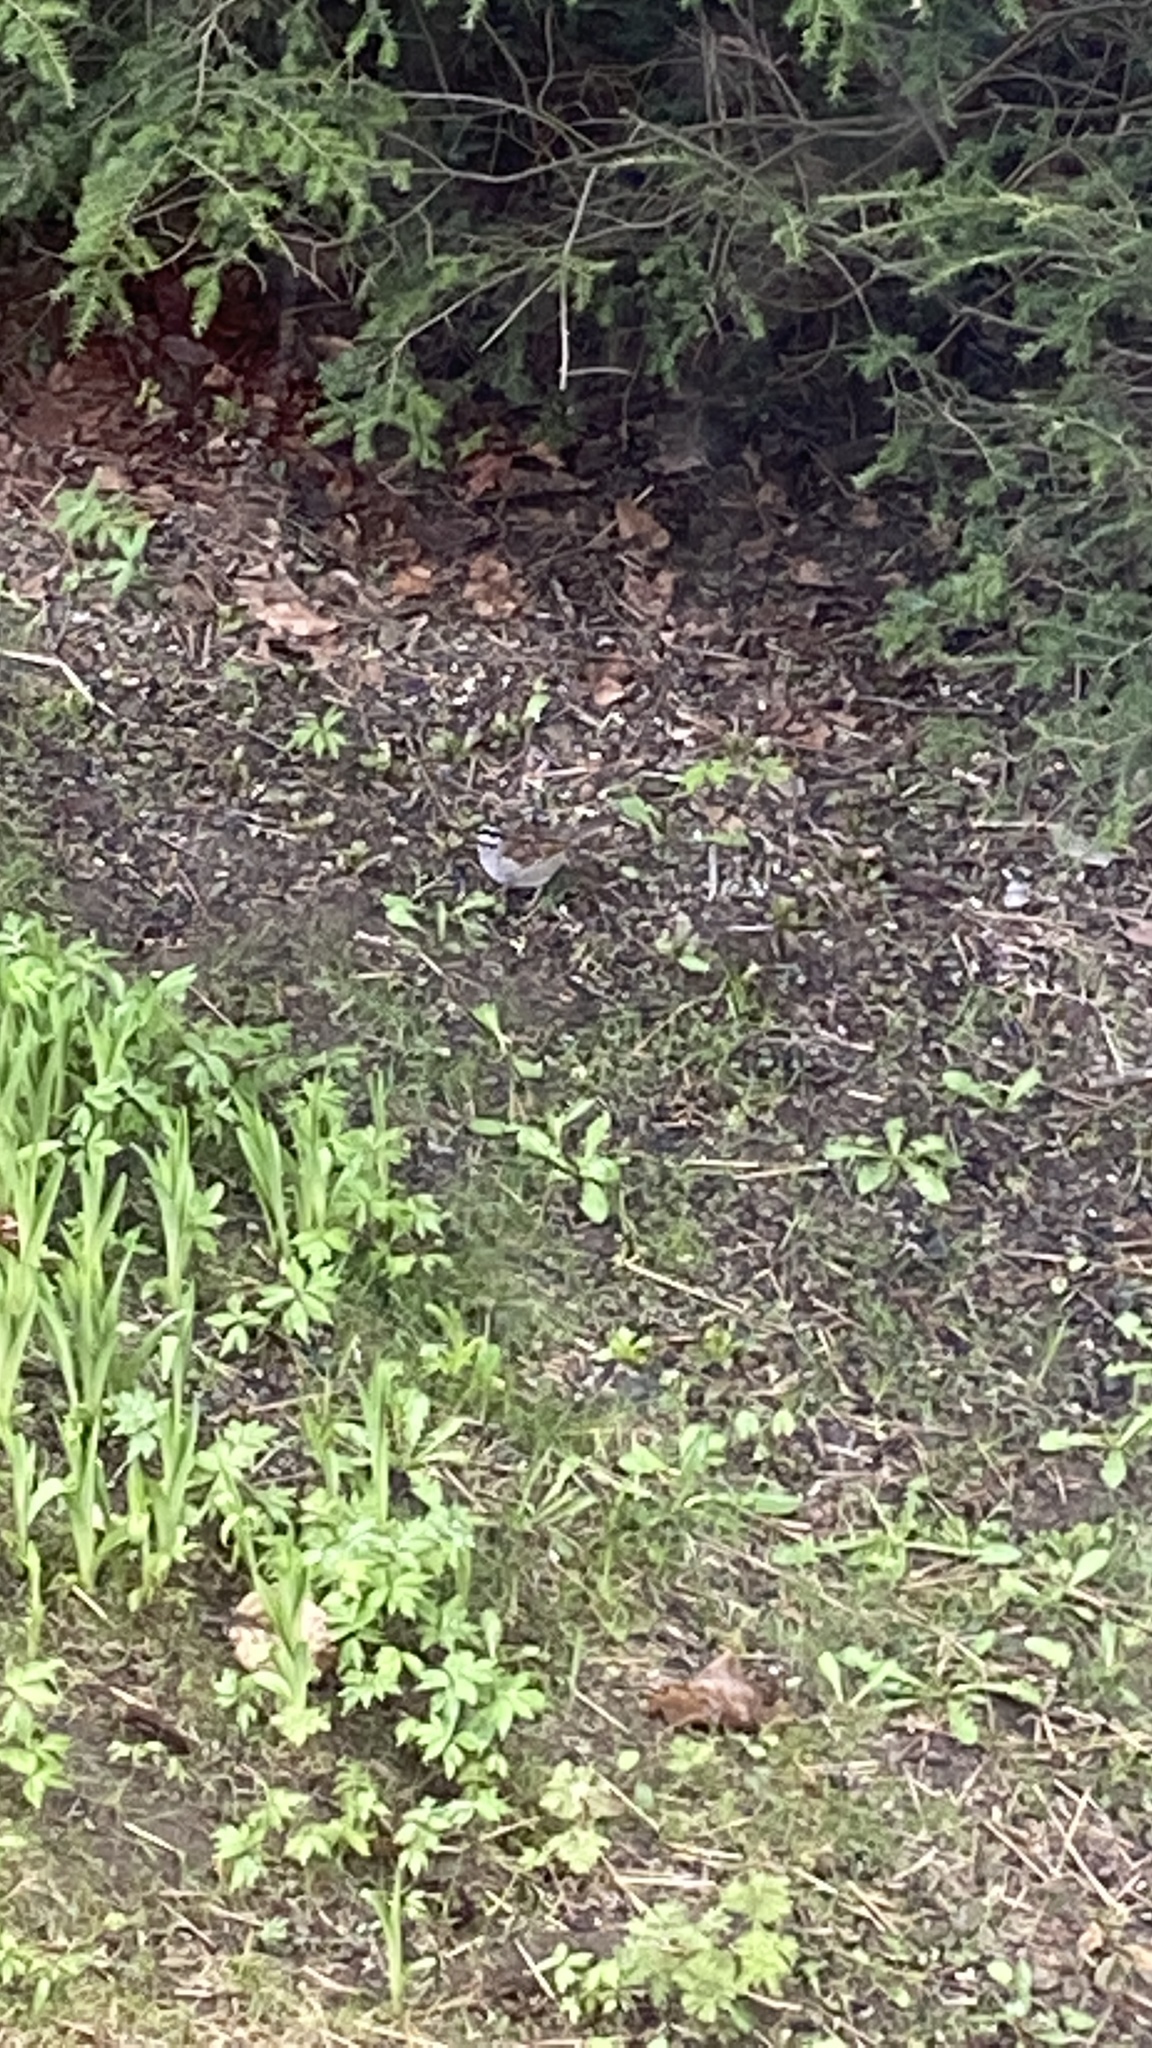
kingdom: Animalia
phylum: Chordata
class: Aves
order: Passeriformes
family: Passerellidae
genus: Zonotrichia
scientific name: Zonotrichia albicollis
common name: White-throated sparrow
